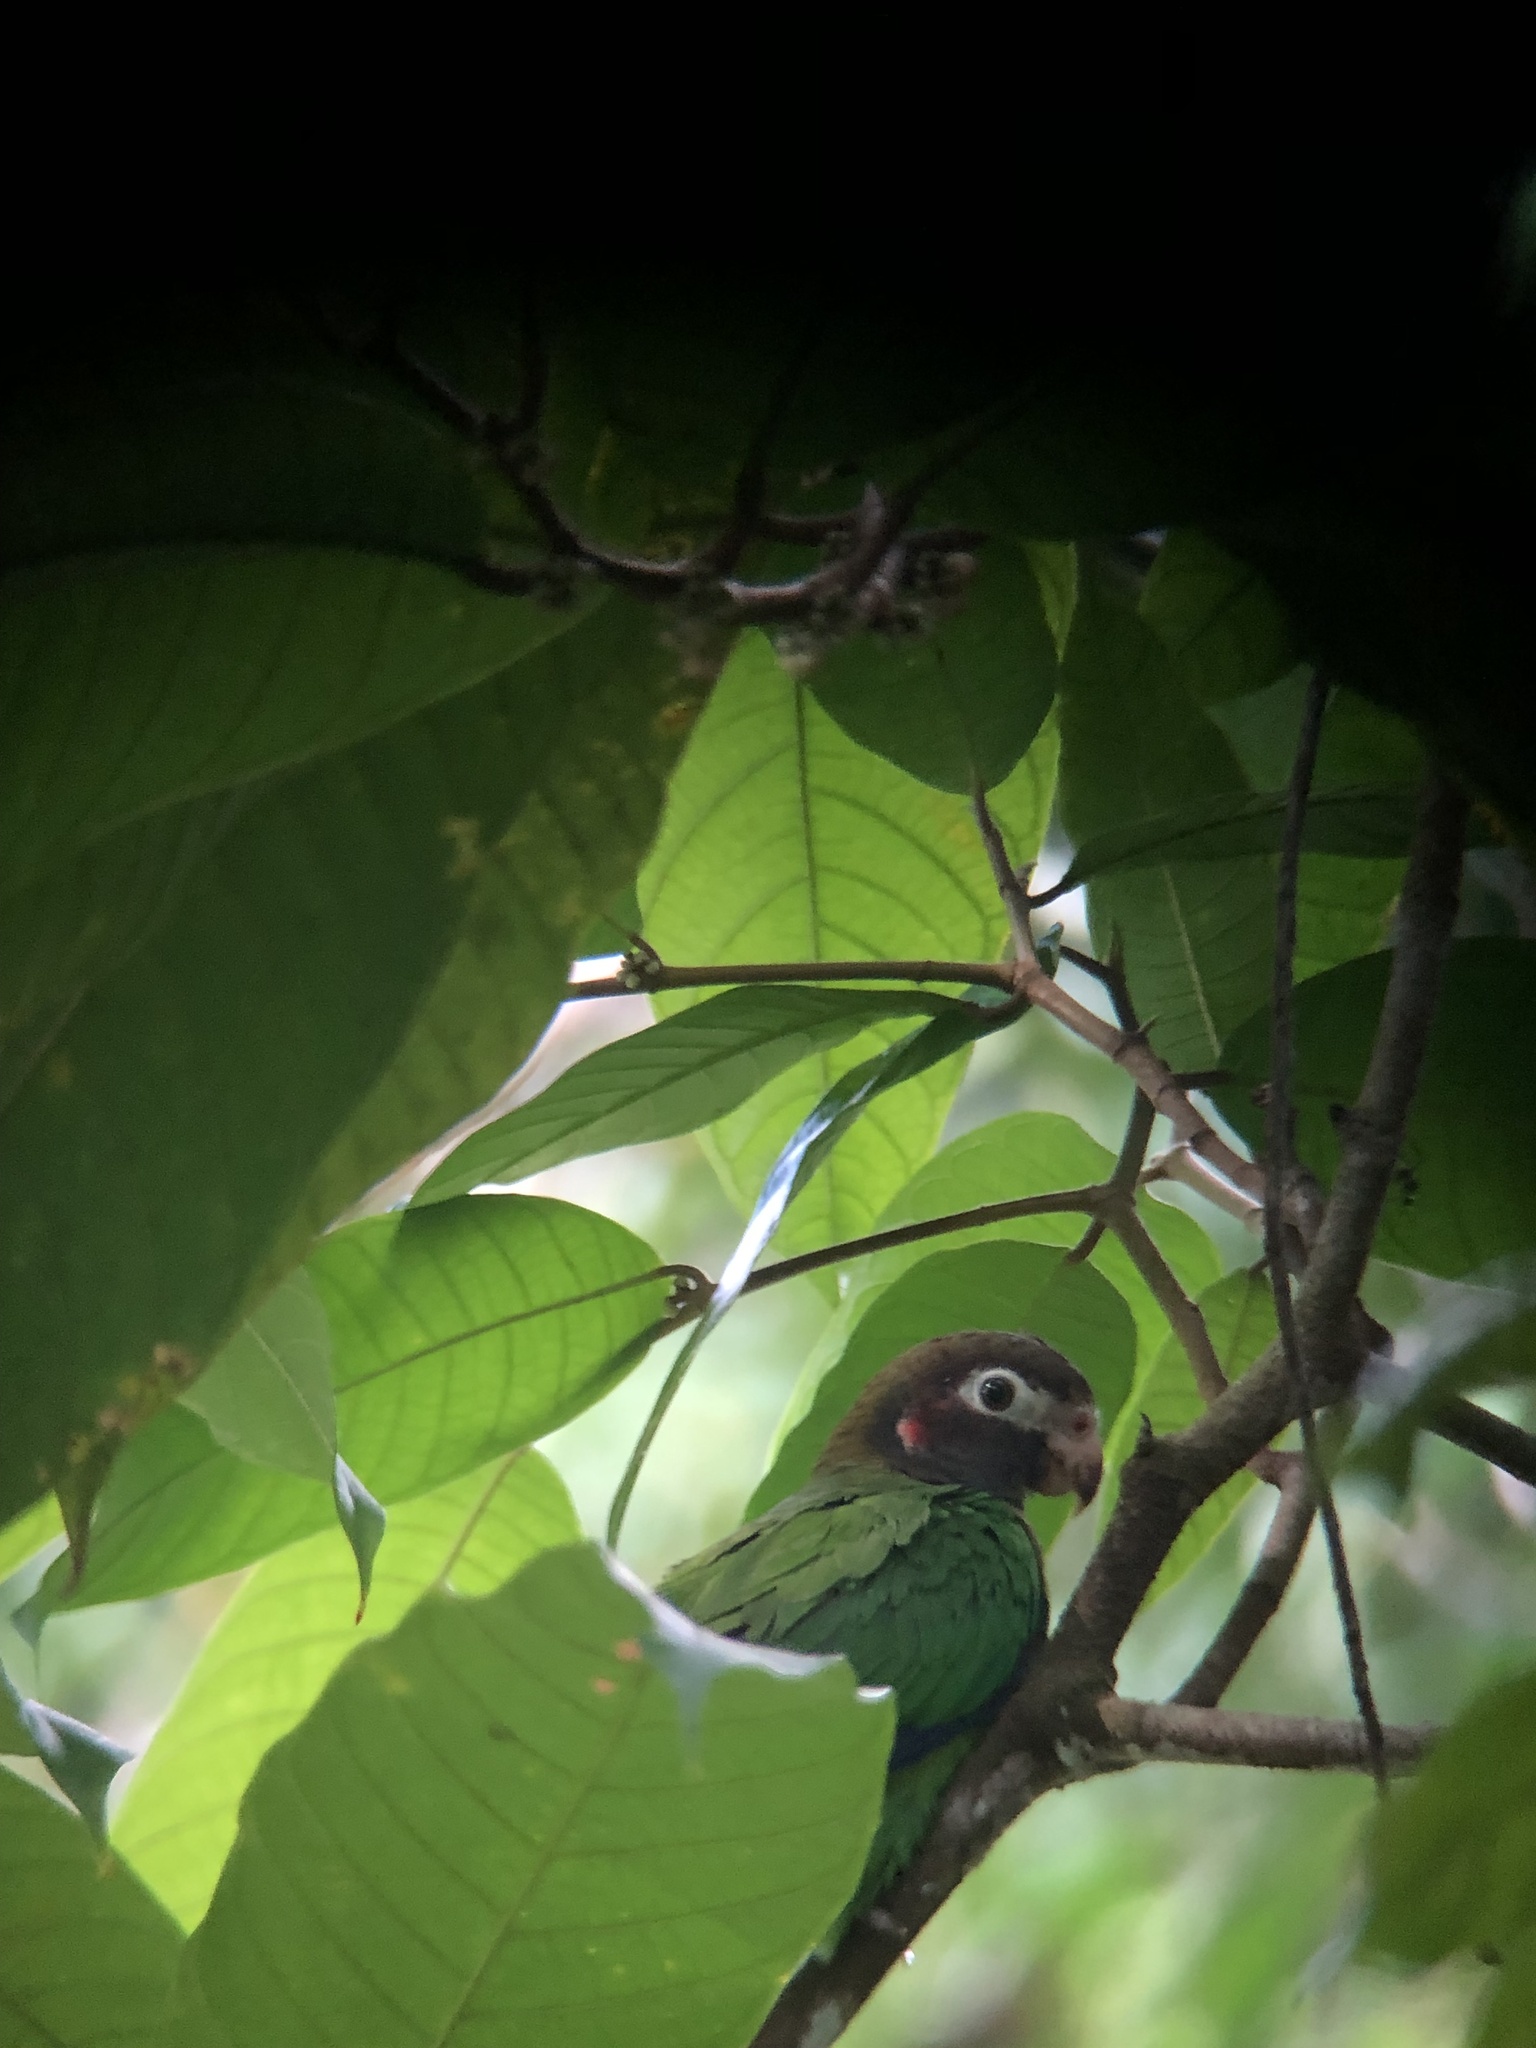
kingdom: Animalia
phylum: Chordata
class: Aves
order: Psittaciformes
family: Psittacidae
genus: Pionopsitta
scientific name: Pionopsitta haematotis
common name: Brown-hooded parrot
